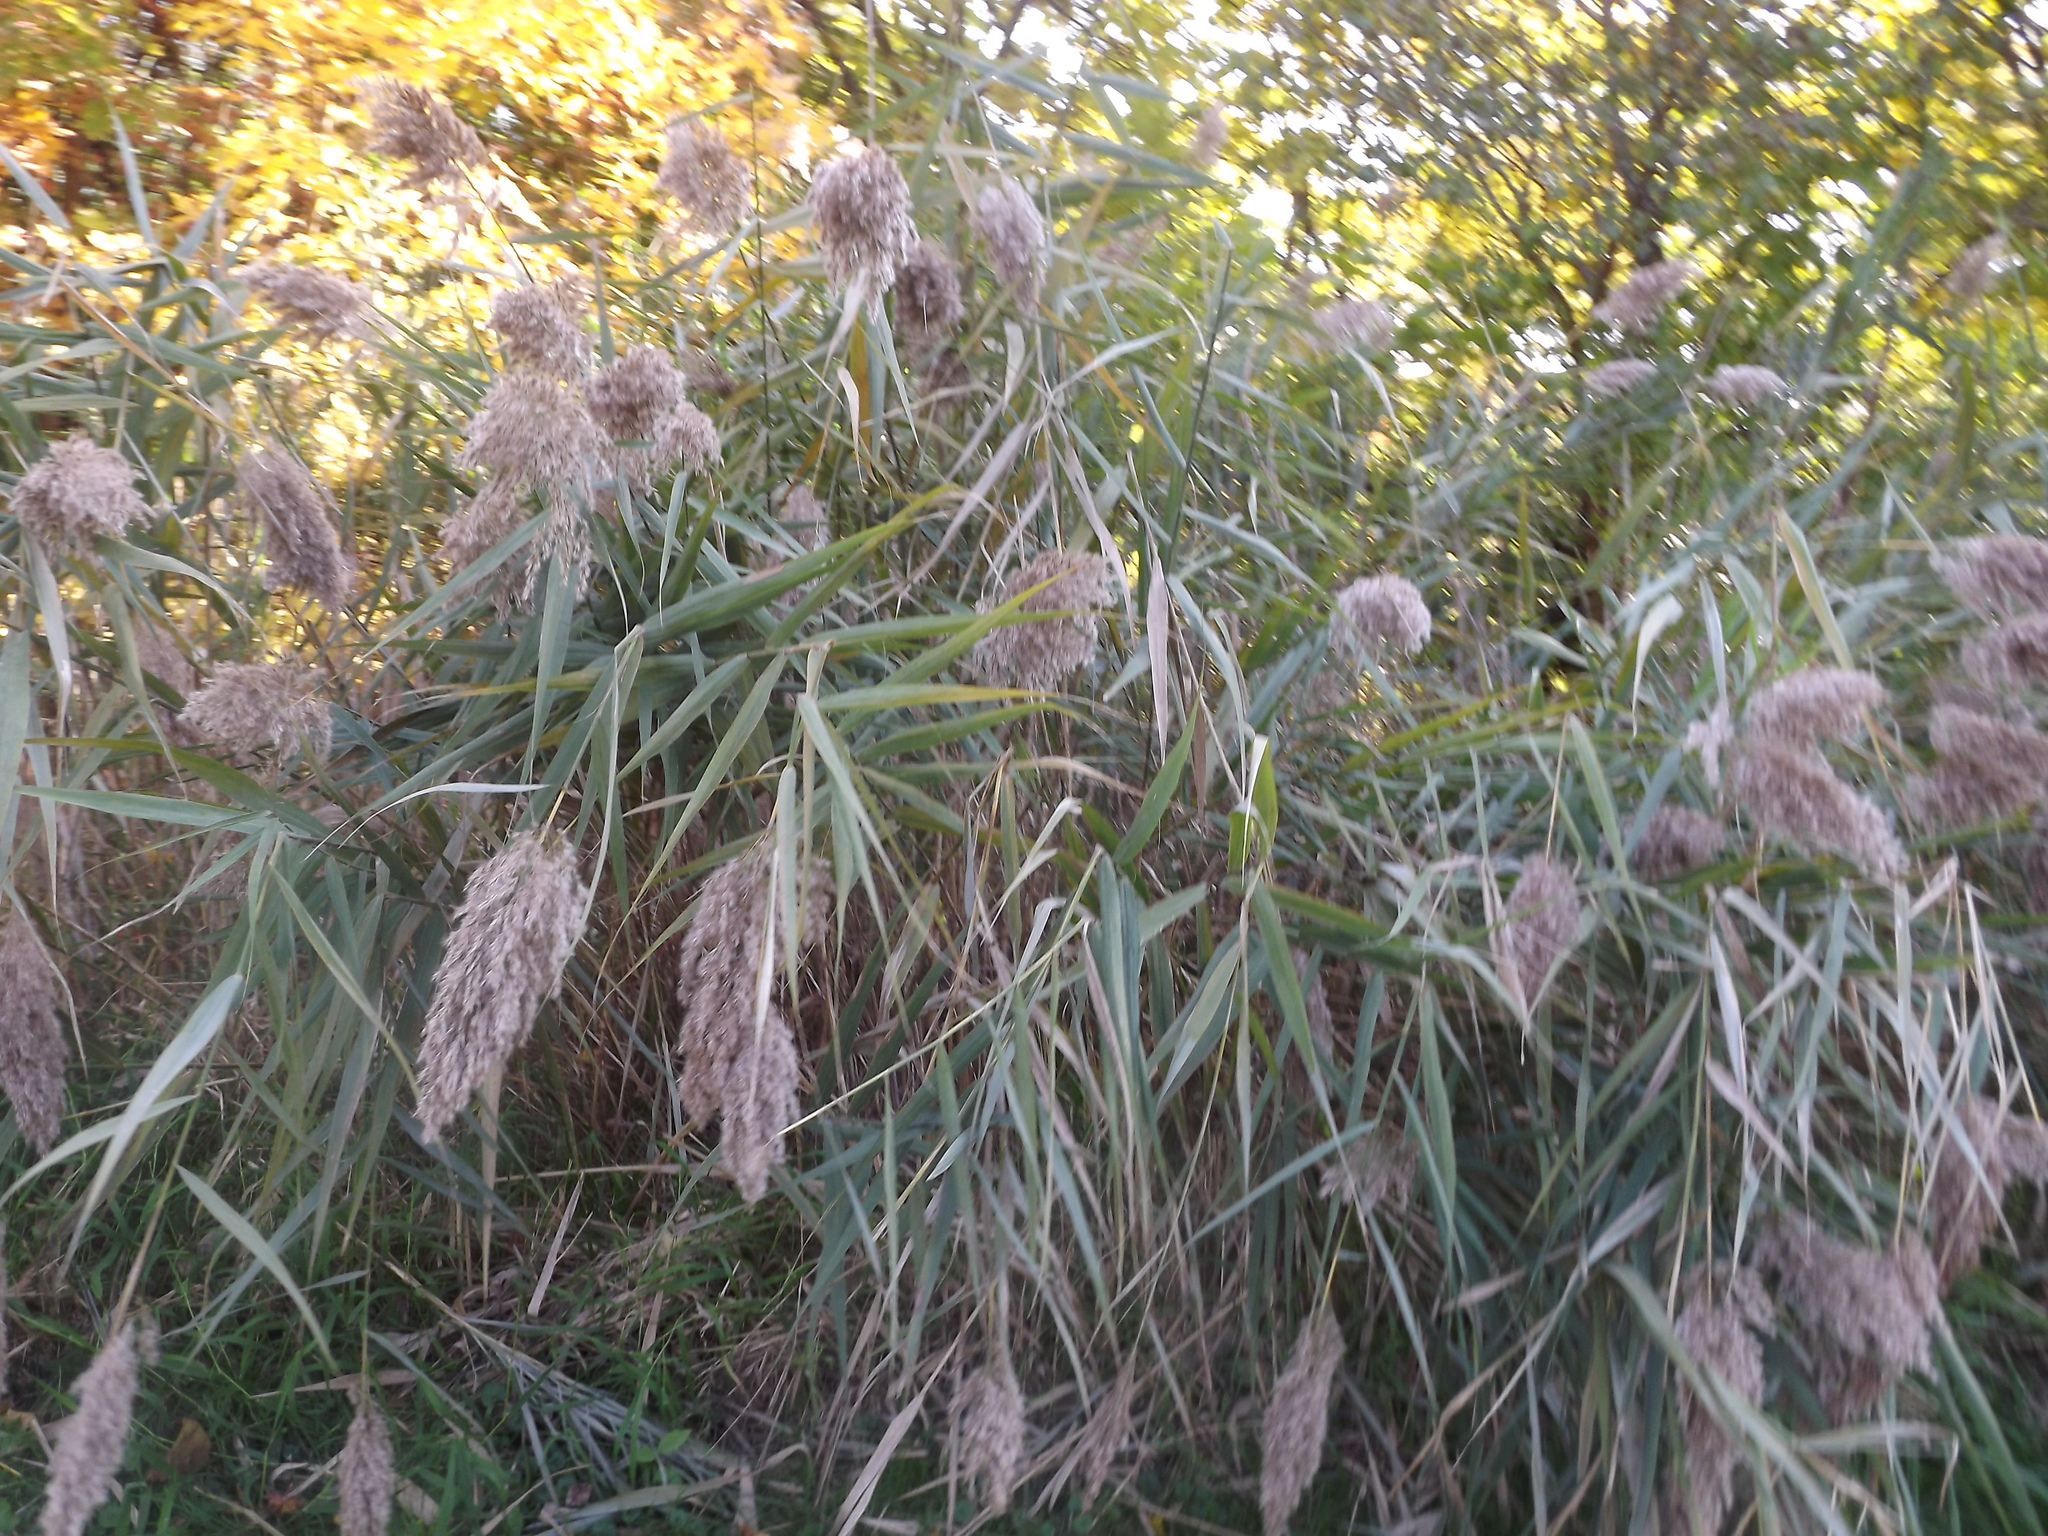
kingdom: Plantae
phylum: Tracheophyta
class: Liliopsida
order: Poales
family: Poaceae
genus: Phragmites
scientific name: Phragmites australis
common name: Common reed
